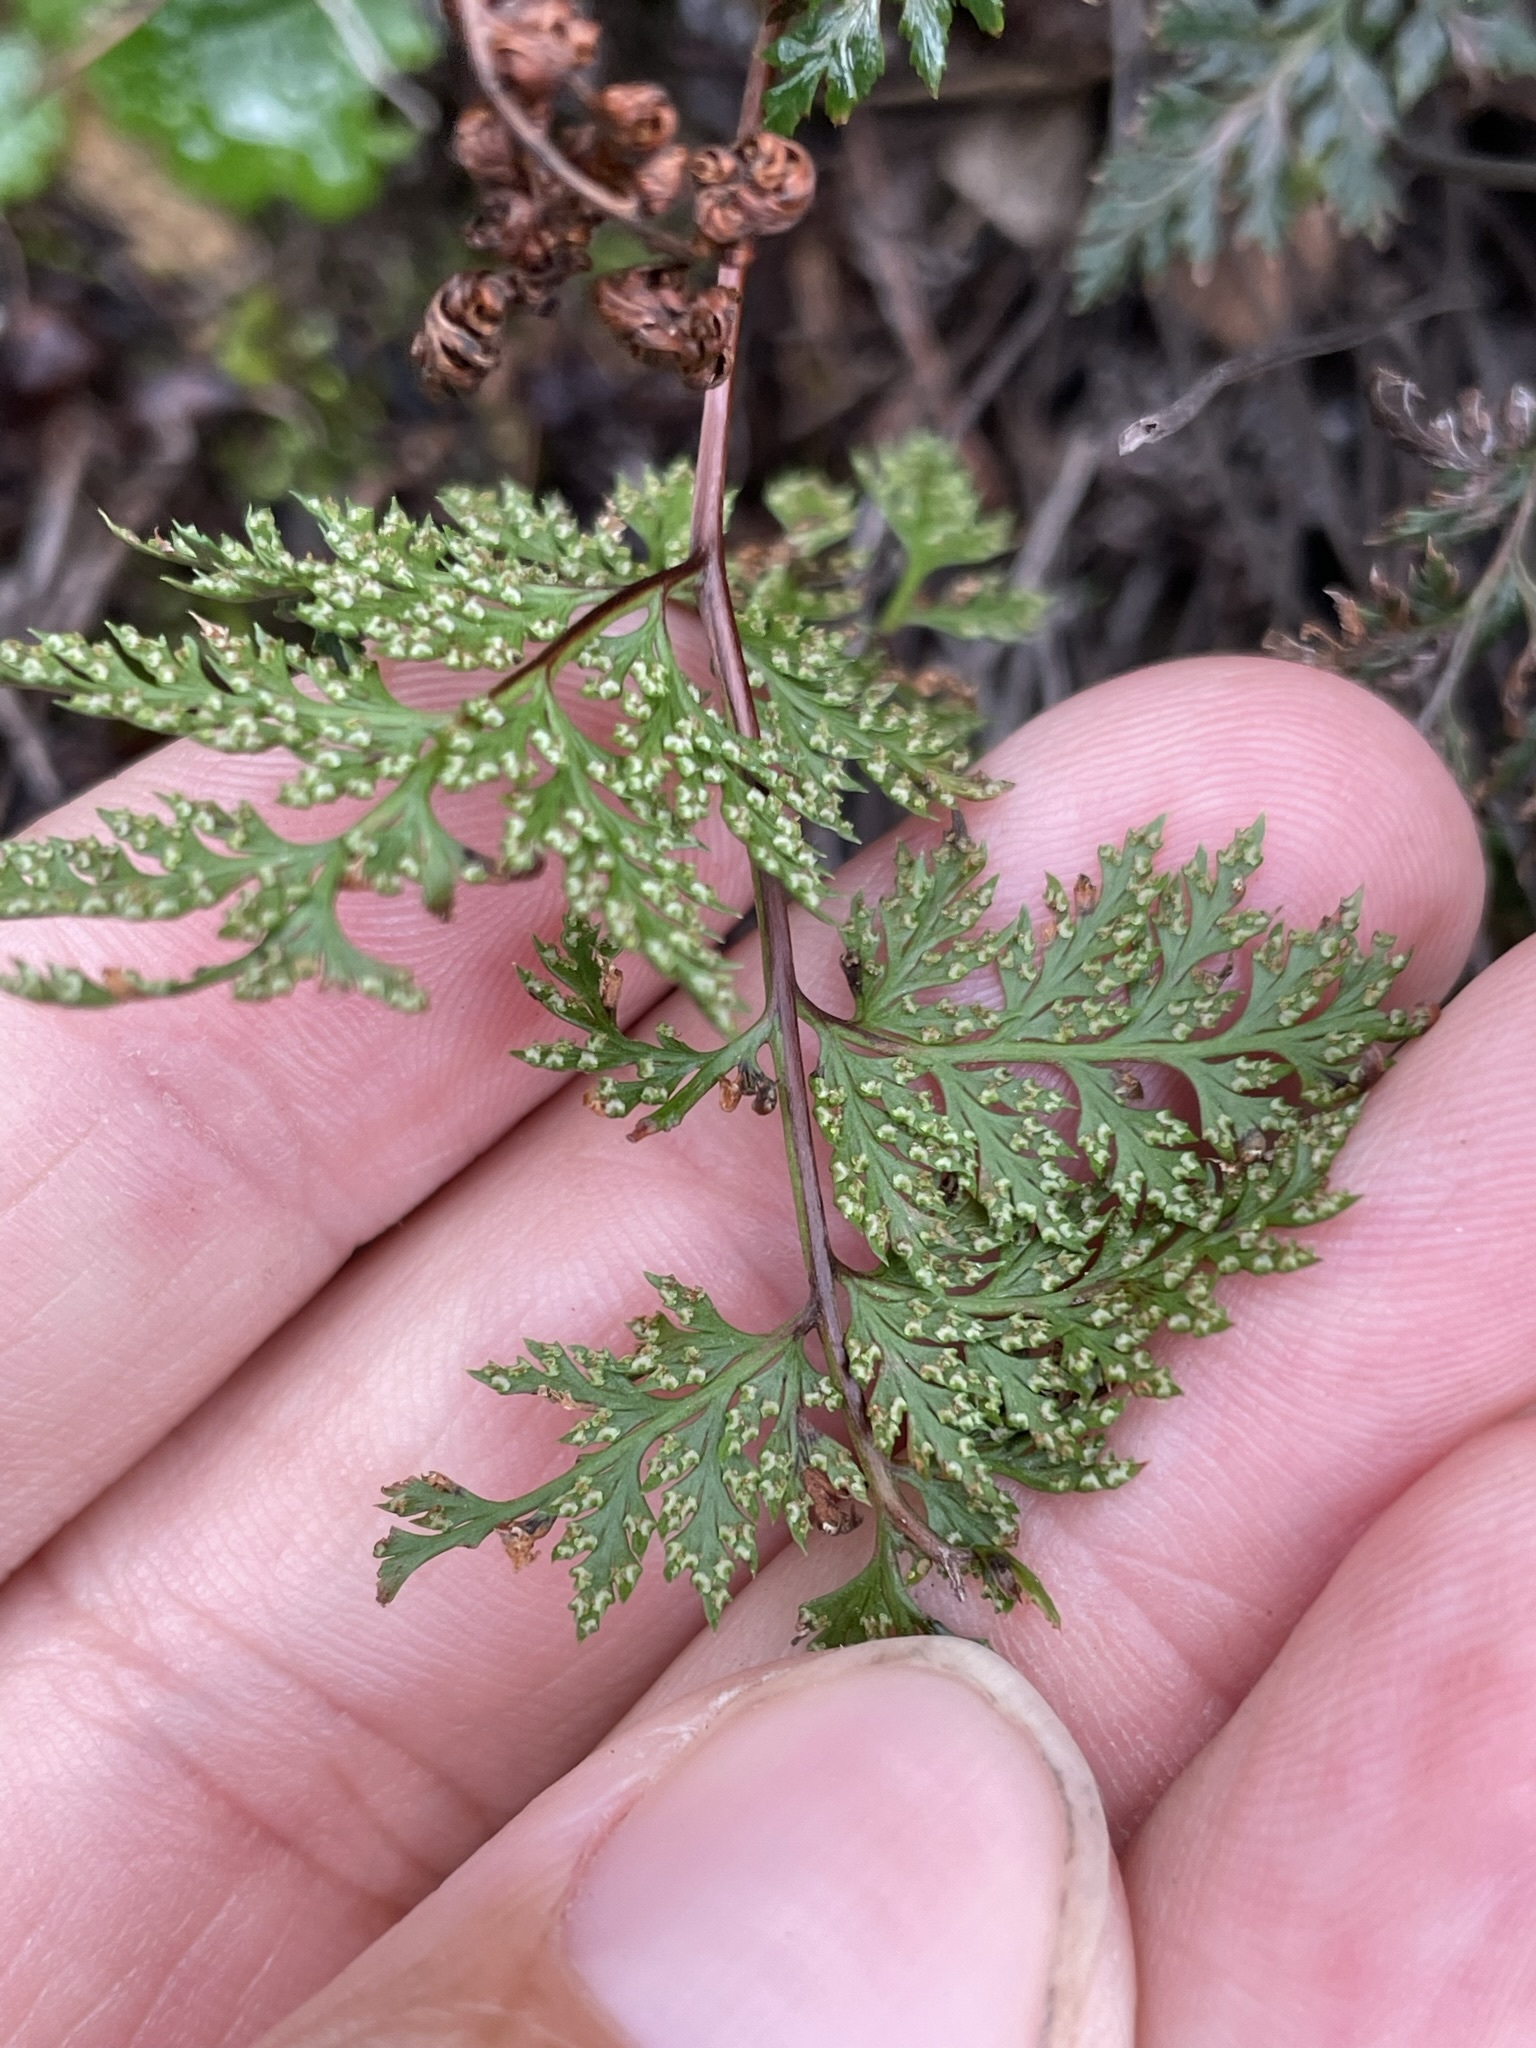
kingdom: Plantae
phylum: Tracheophyta
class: Polypodiopsida
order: Polypodiales
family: Pteridaceae
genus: Aspidotis
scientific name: Aspidotis californica
